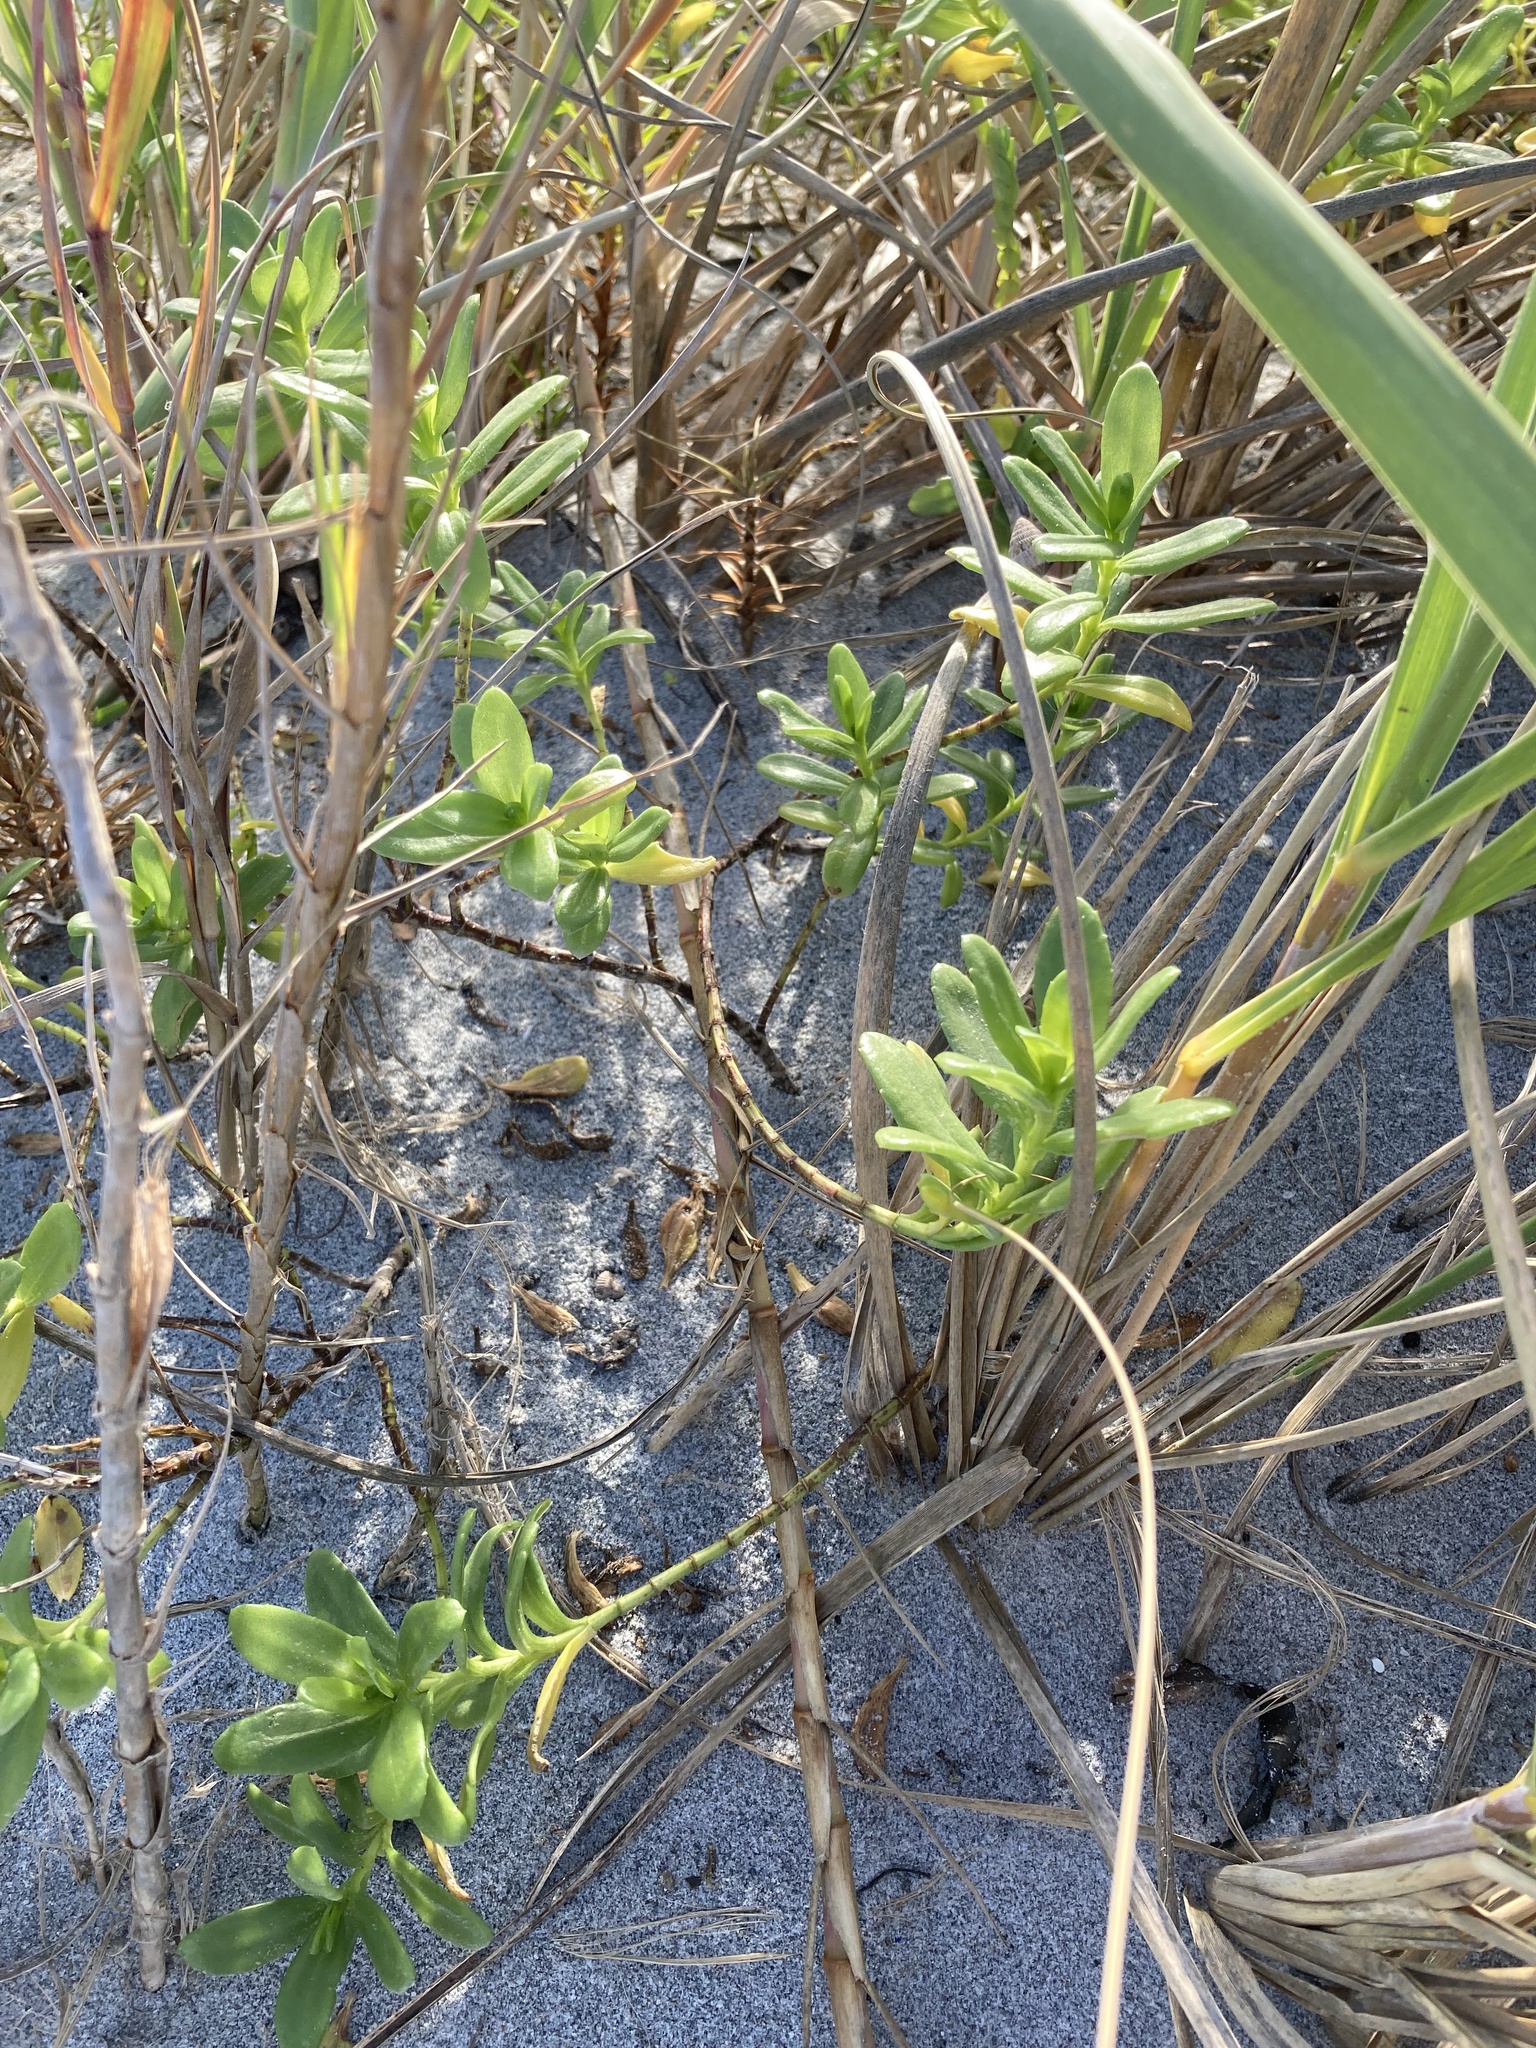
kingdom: Plantae
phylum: Tracheophyta
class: Magnoliopsida
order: Asterales
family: Asteraceae
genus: Iva
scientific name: Iva imbricata
